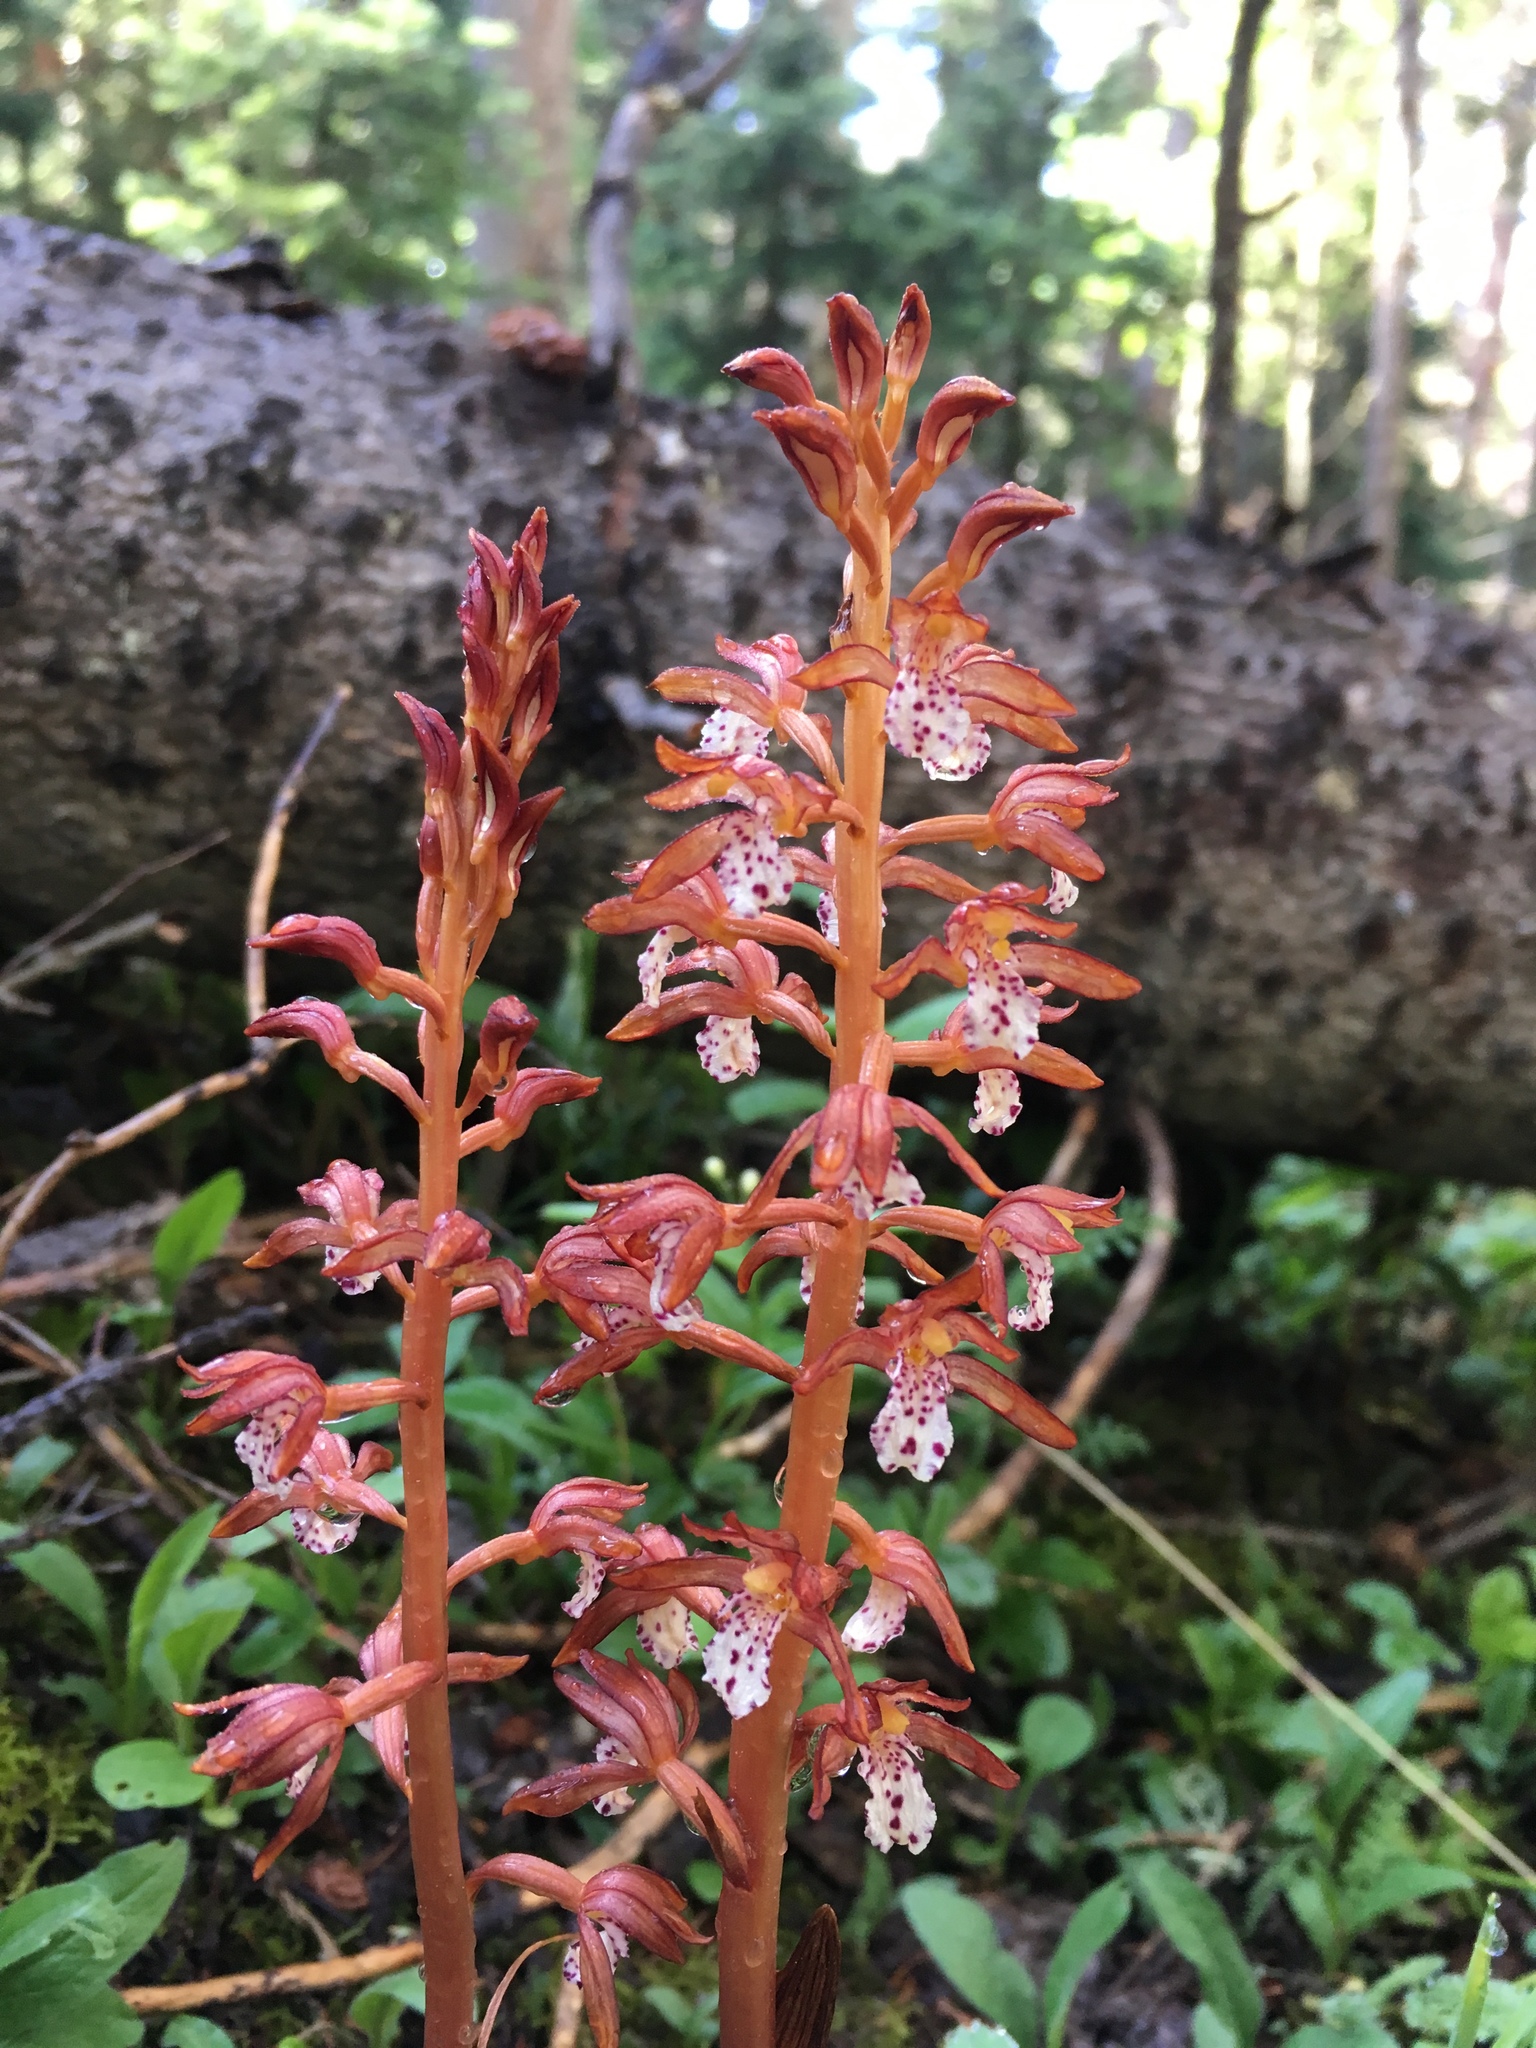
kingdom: Plantae
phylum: Tracheophyta
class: Liliopsida
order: Asparagales
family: Orchidaceae
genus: Corallorhiza
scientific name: Corallorhiza maculata
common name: Spotted coralroot
